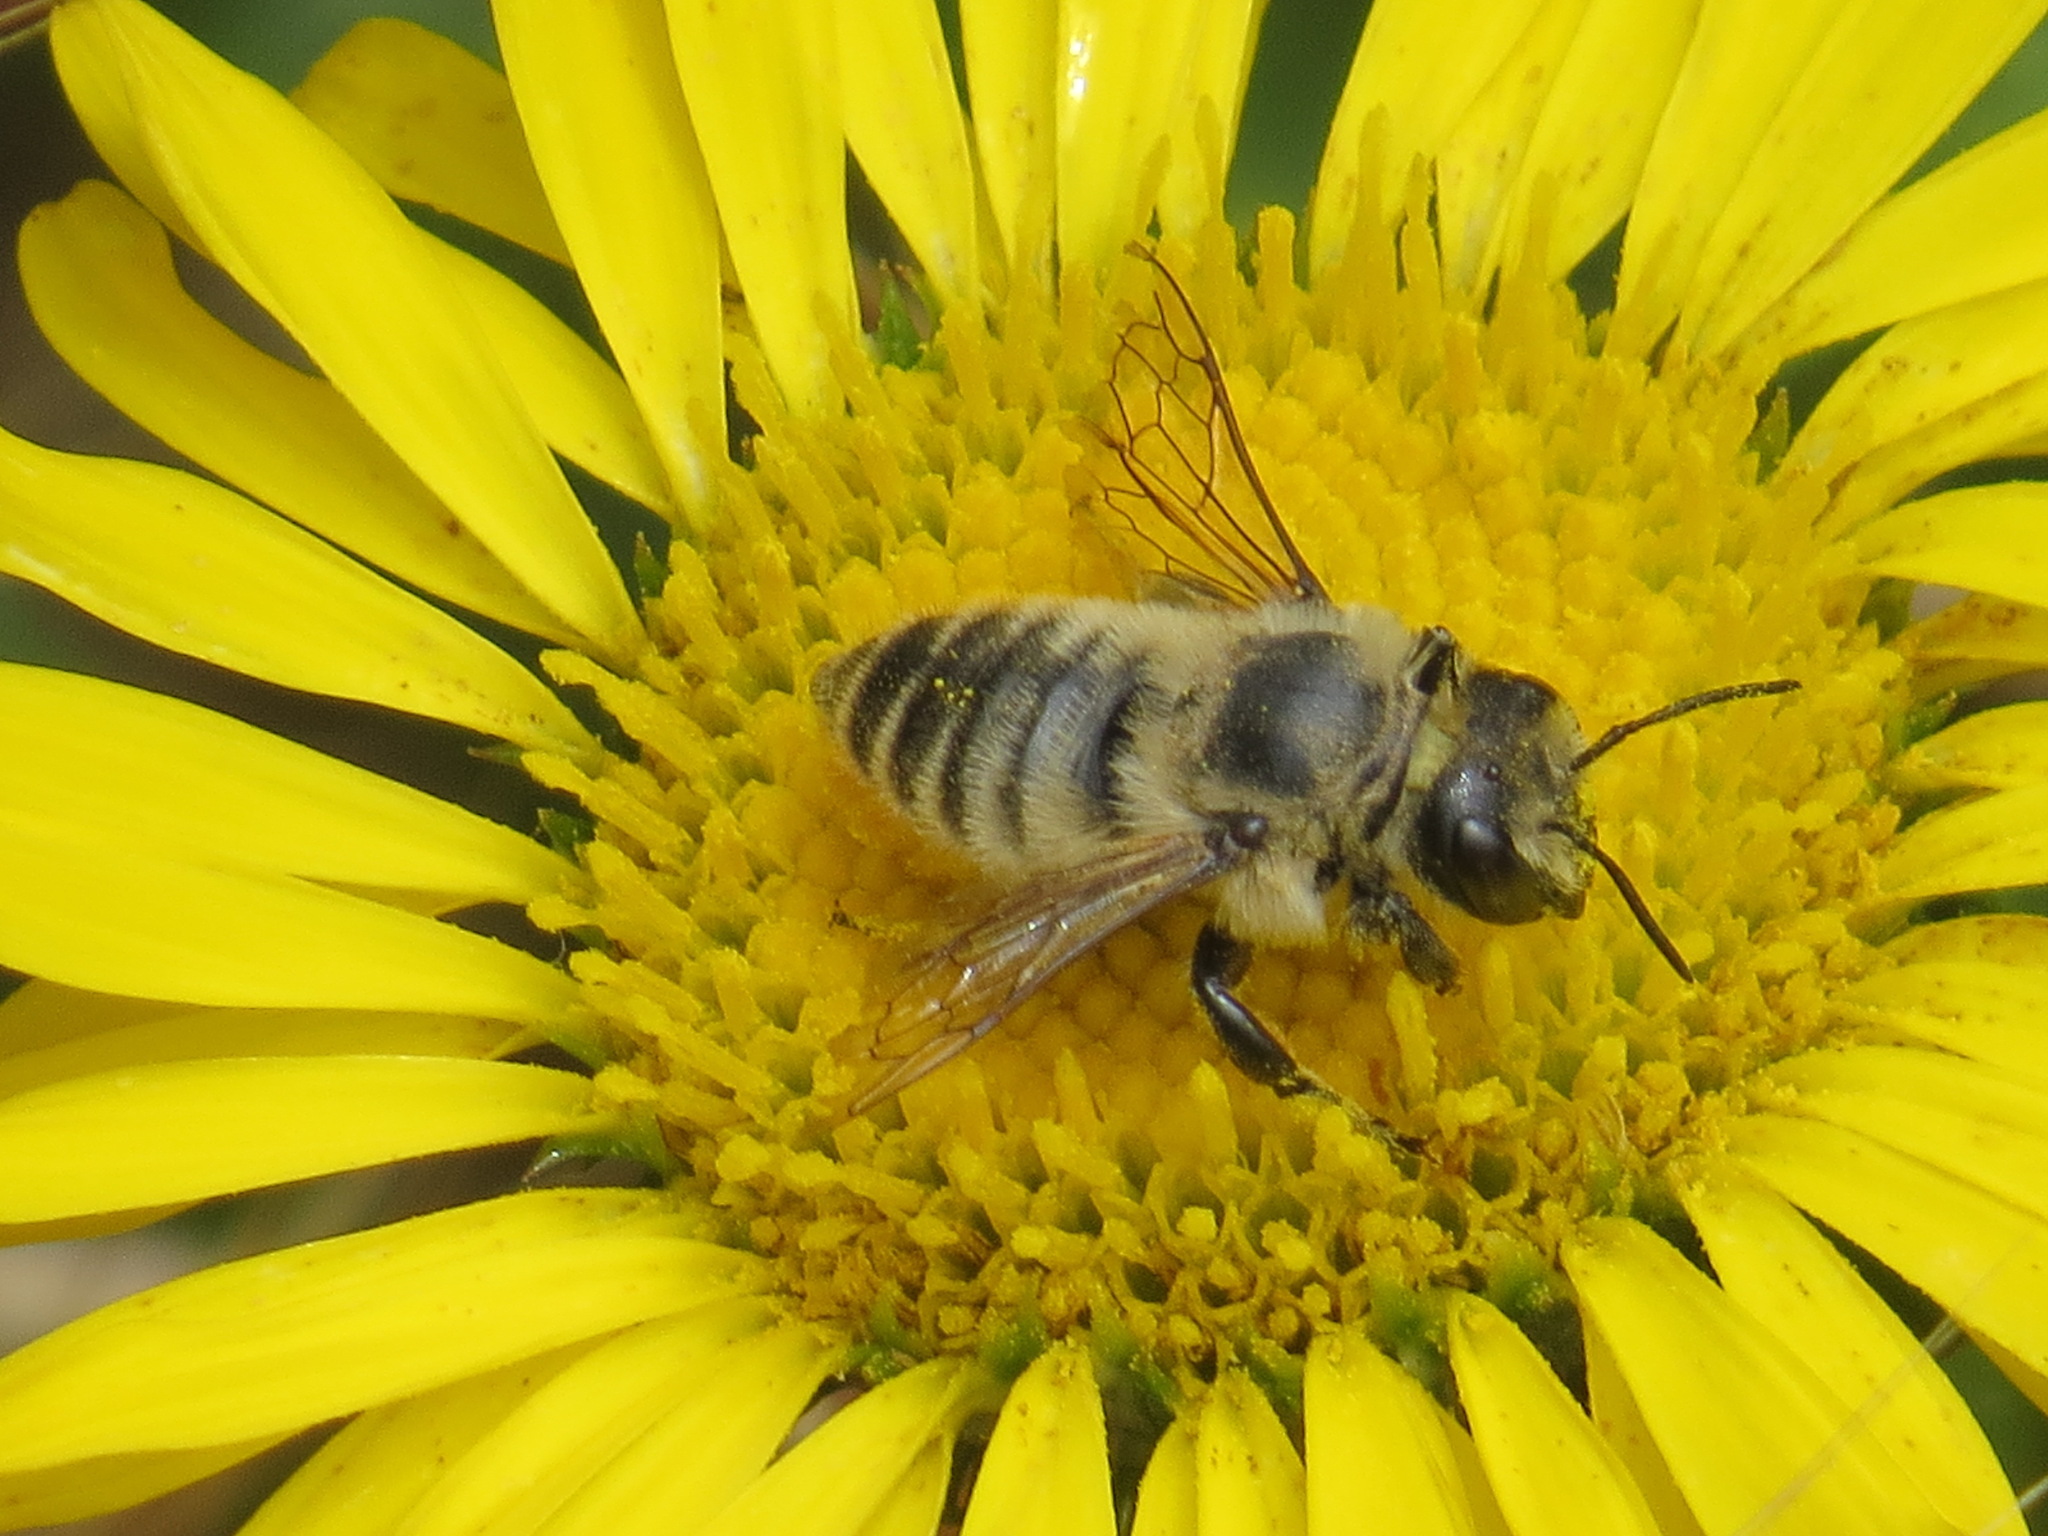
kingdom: Animalia
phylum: Arthropoda
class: Insecta
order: Hymenoptera
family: Megachilidae
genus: Megachile
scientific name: Megachile perihirta
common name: Western leafcutter
